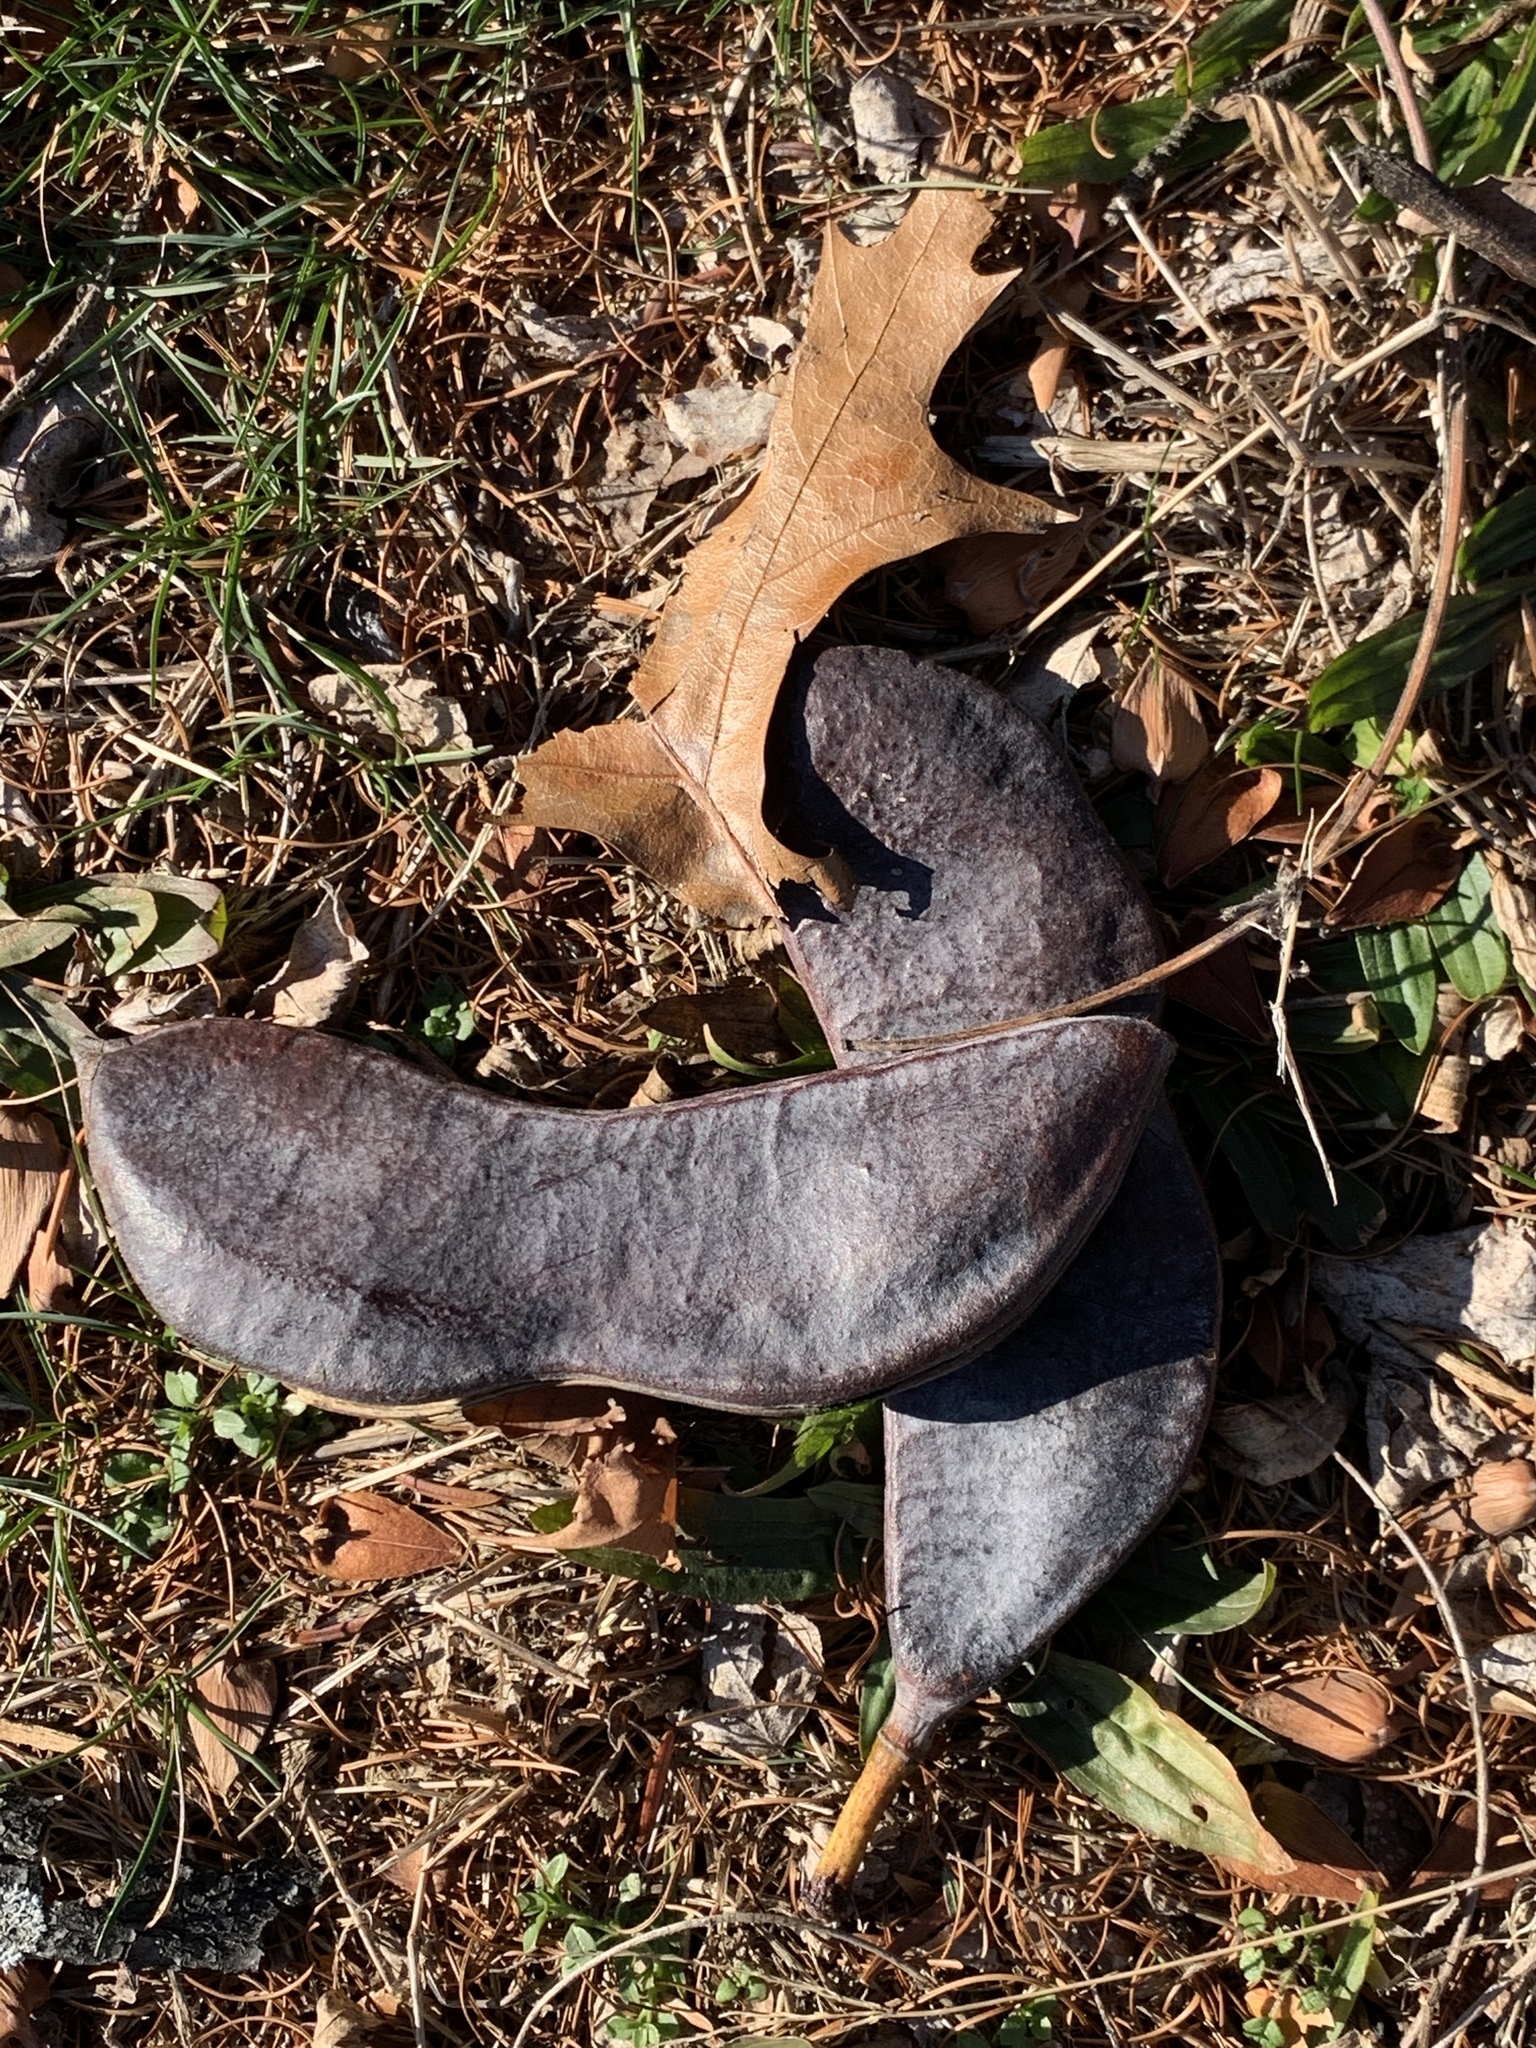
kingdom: Plantae
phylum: Tracheophyta
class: Magnoliopsida
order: Fabales
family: Fabaceae
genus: Gymnocladus
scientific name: Gymnocladus dioicus
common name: Kentucky coffee-tree
